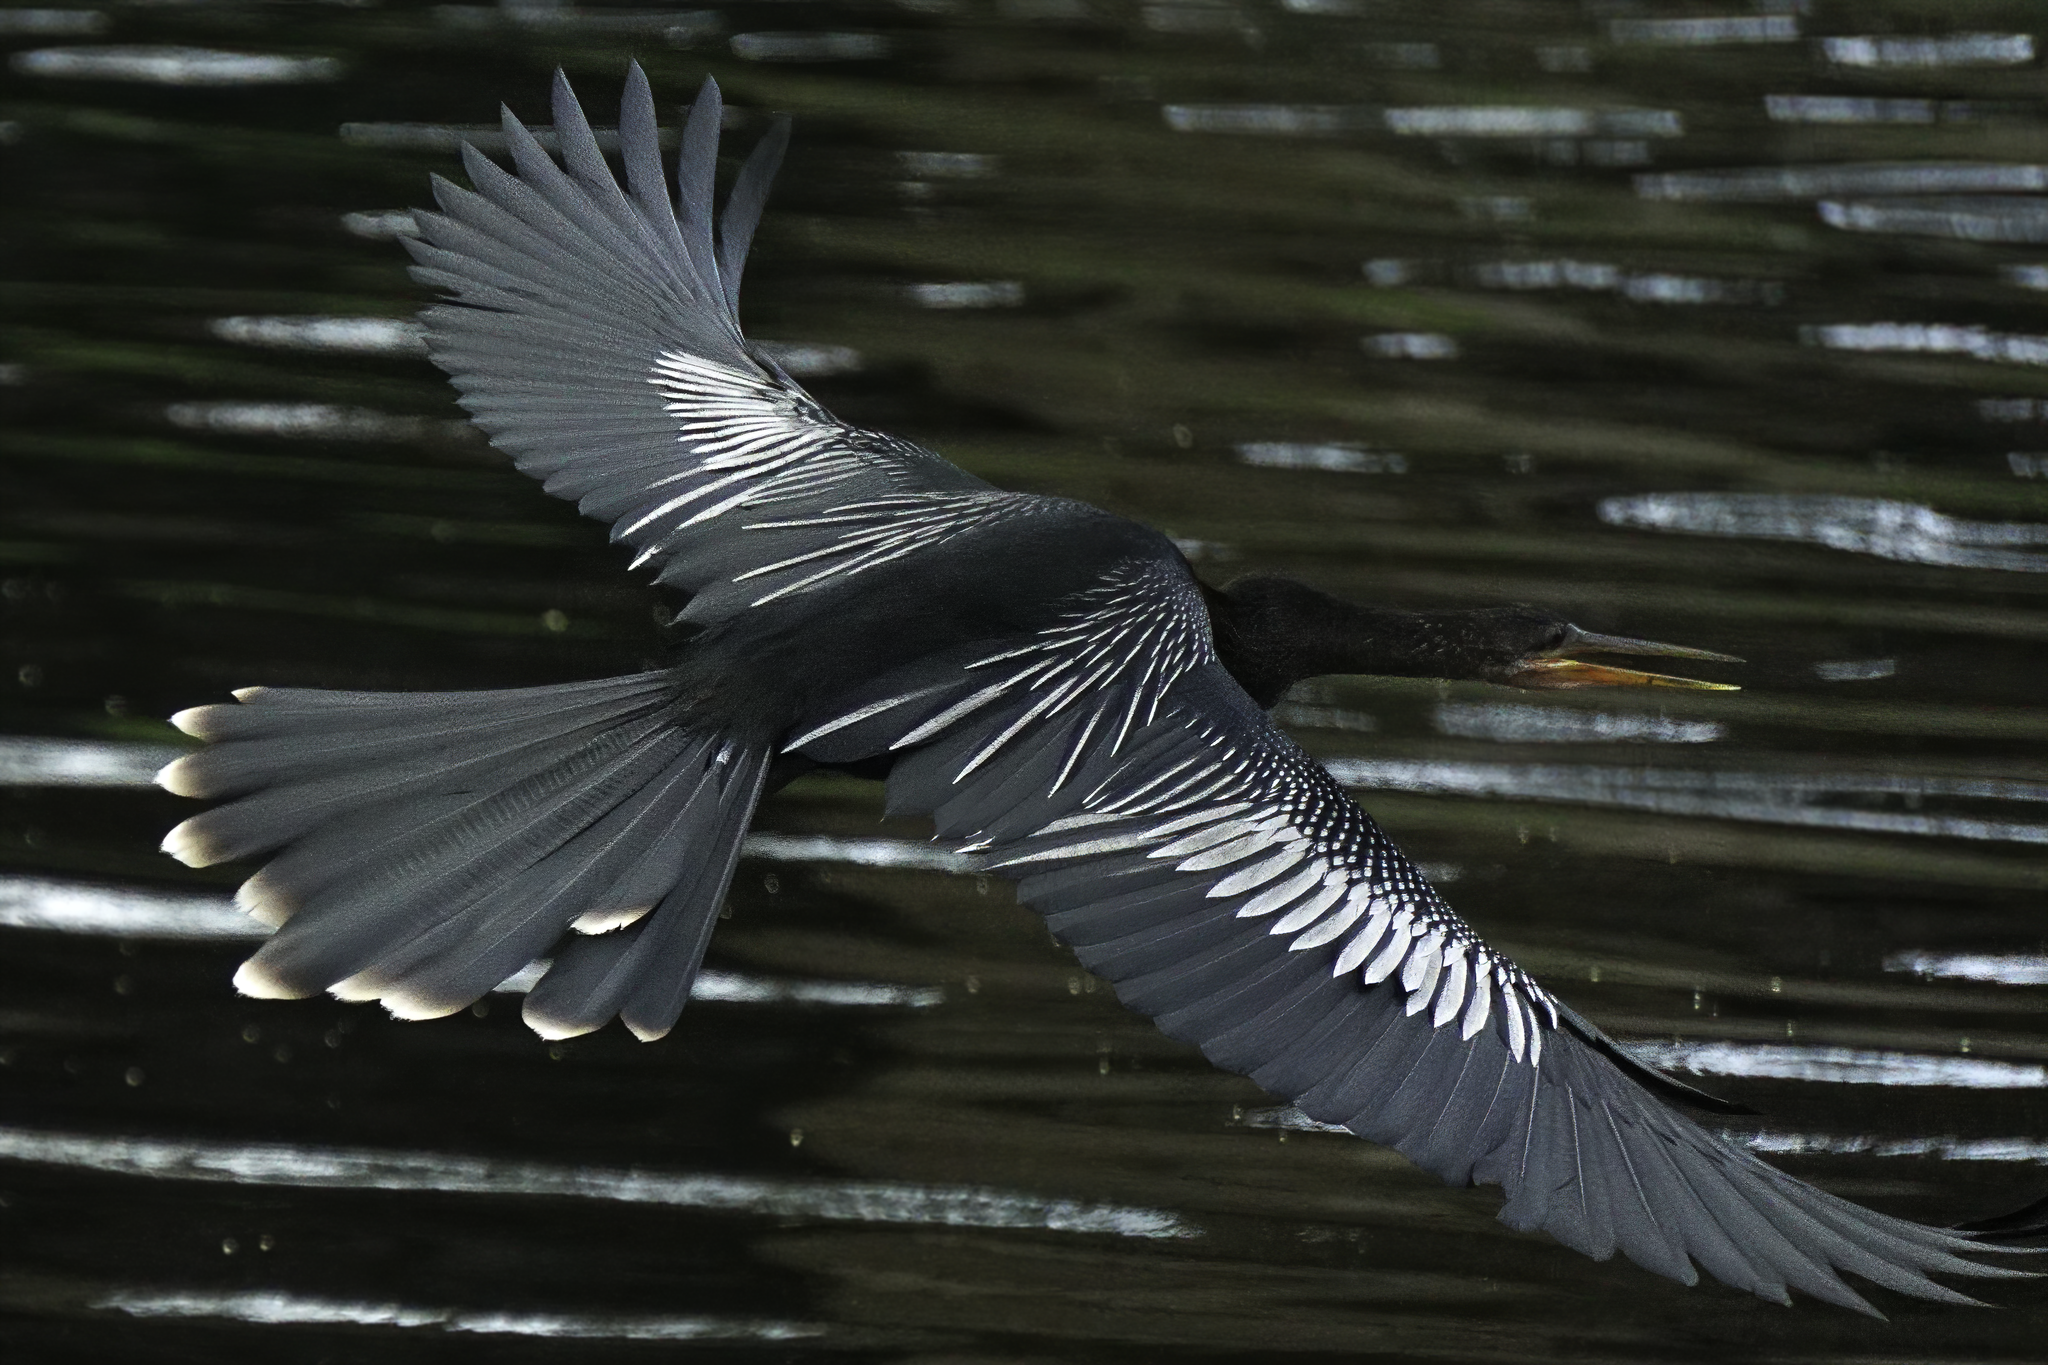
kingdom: Animalia
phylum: Chordata
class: Aves
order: Suliformes
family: Anhingidae
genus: Anhinga
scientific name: Anhinga anhinga
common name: Anhinga
